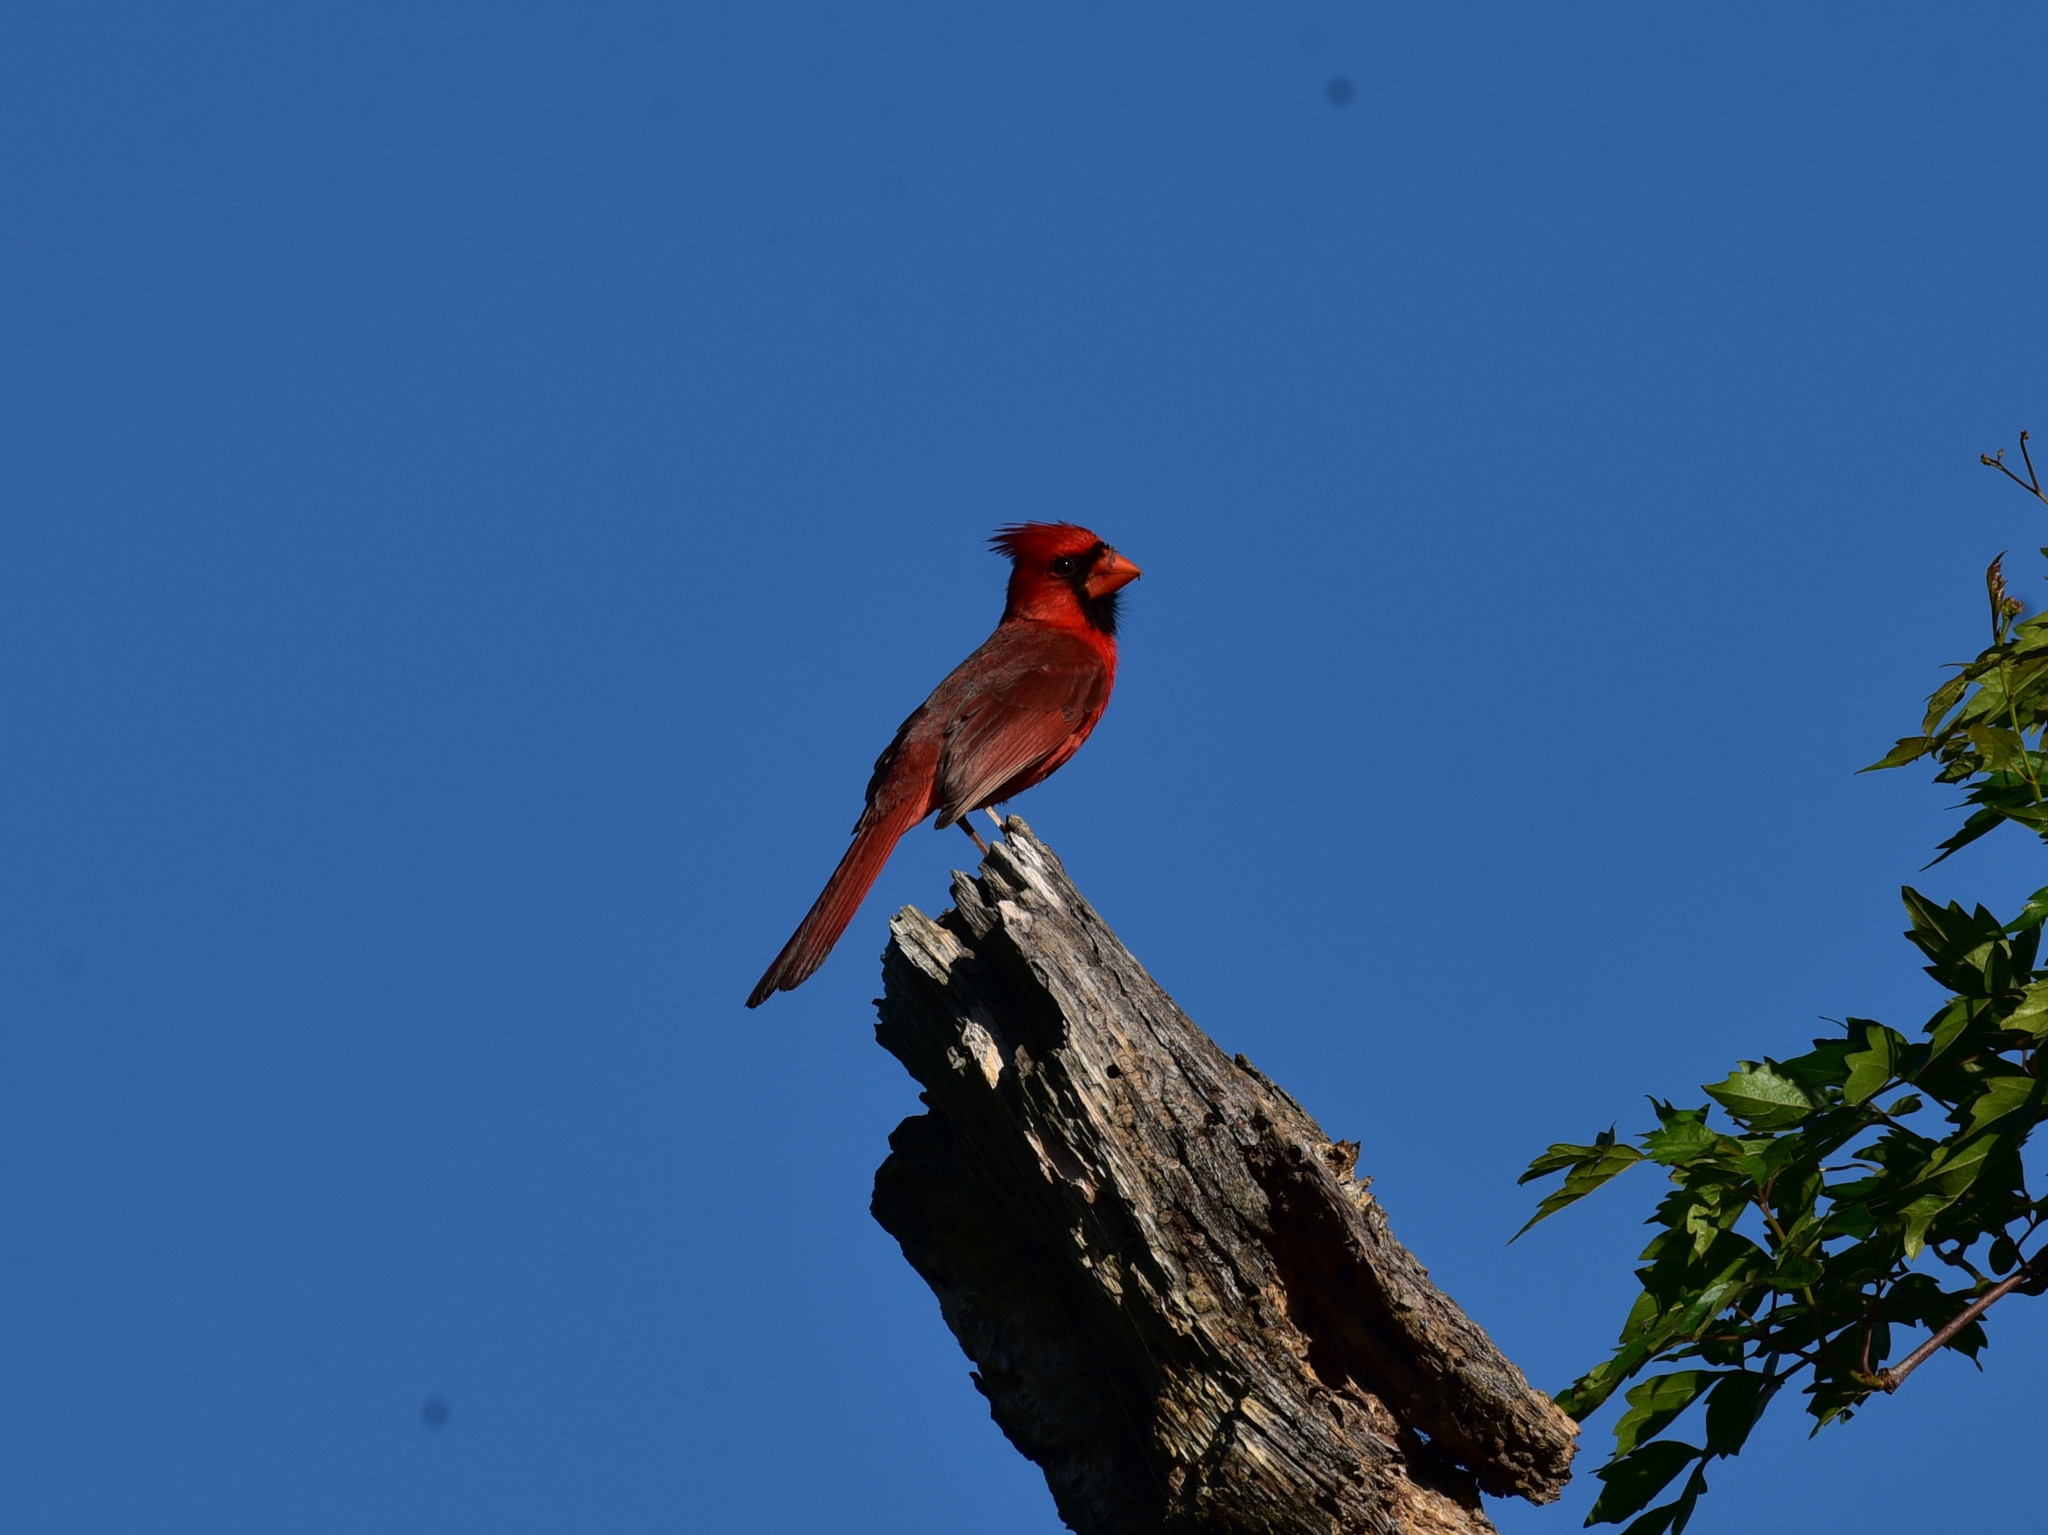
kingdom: Animalia
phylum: Chordata
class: Aves
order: Passeriformes
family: Cardinalidae
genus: Cardinalis
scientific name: Cardinalis cardinalis
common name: Northern cardinal
